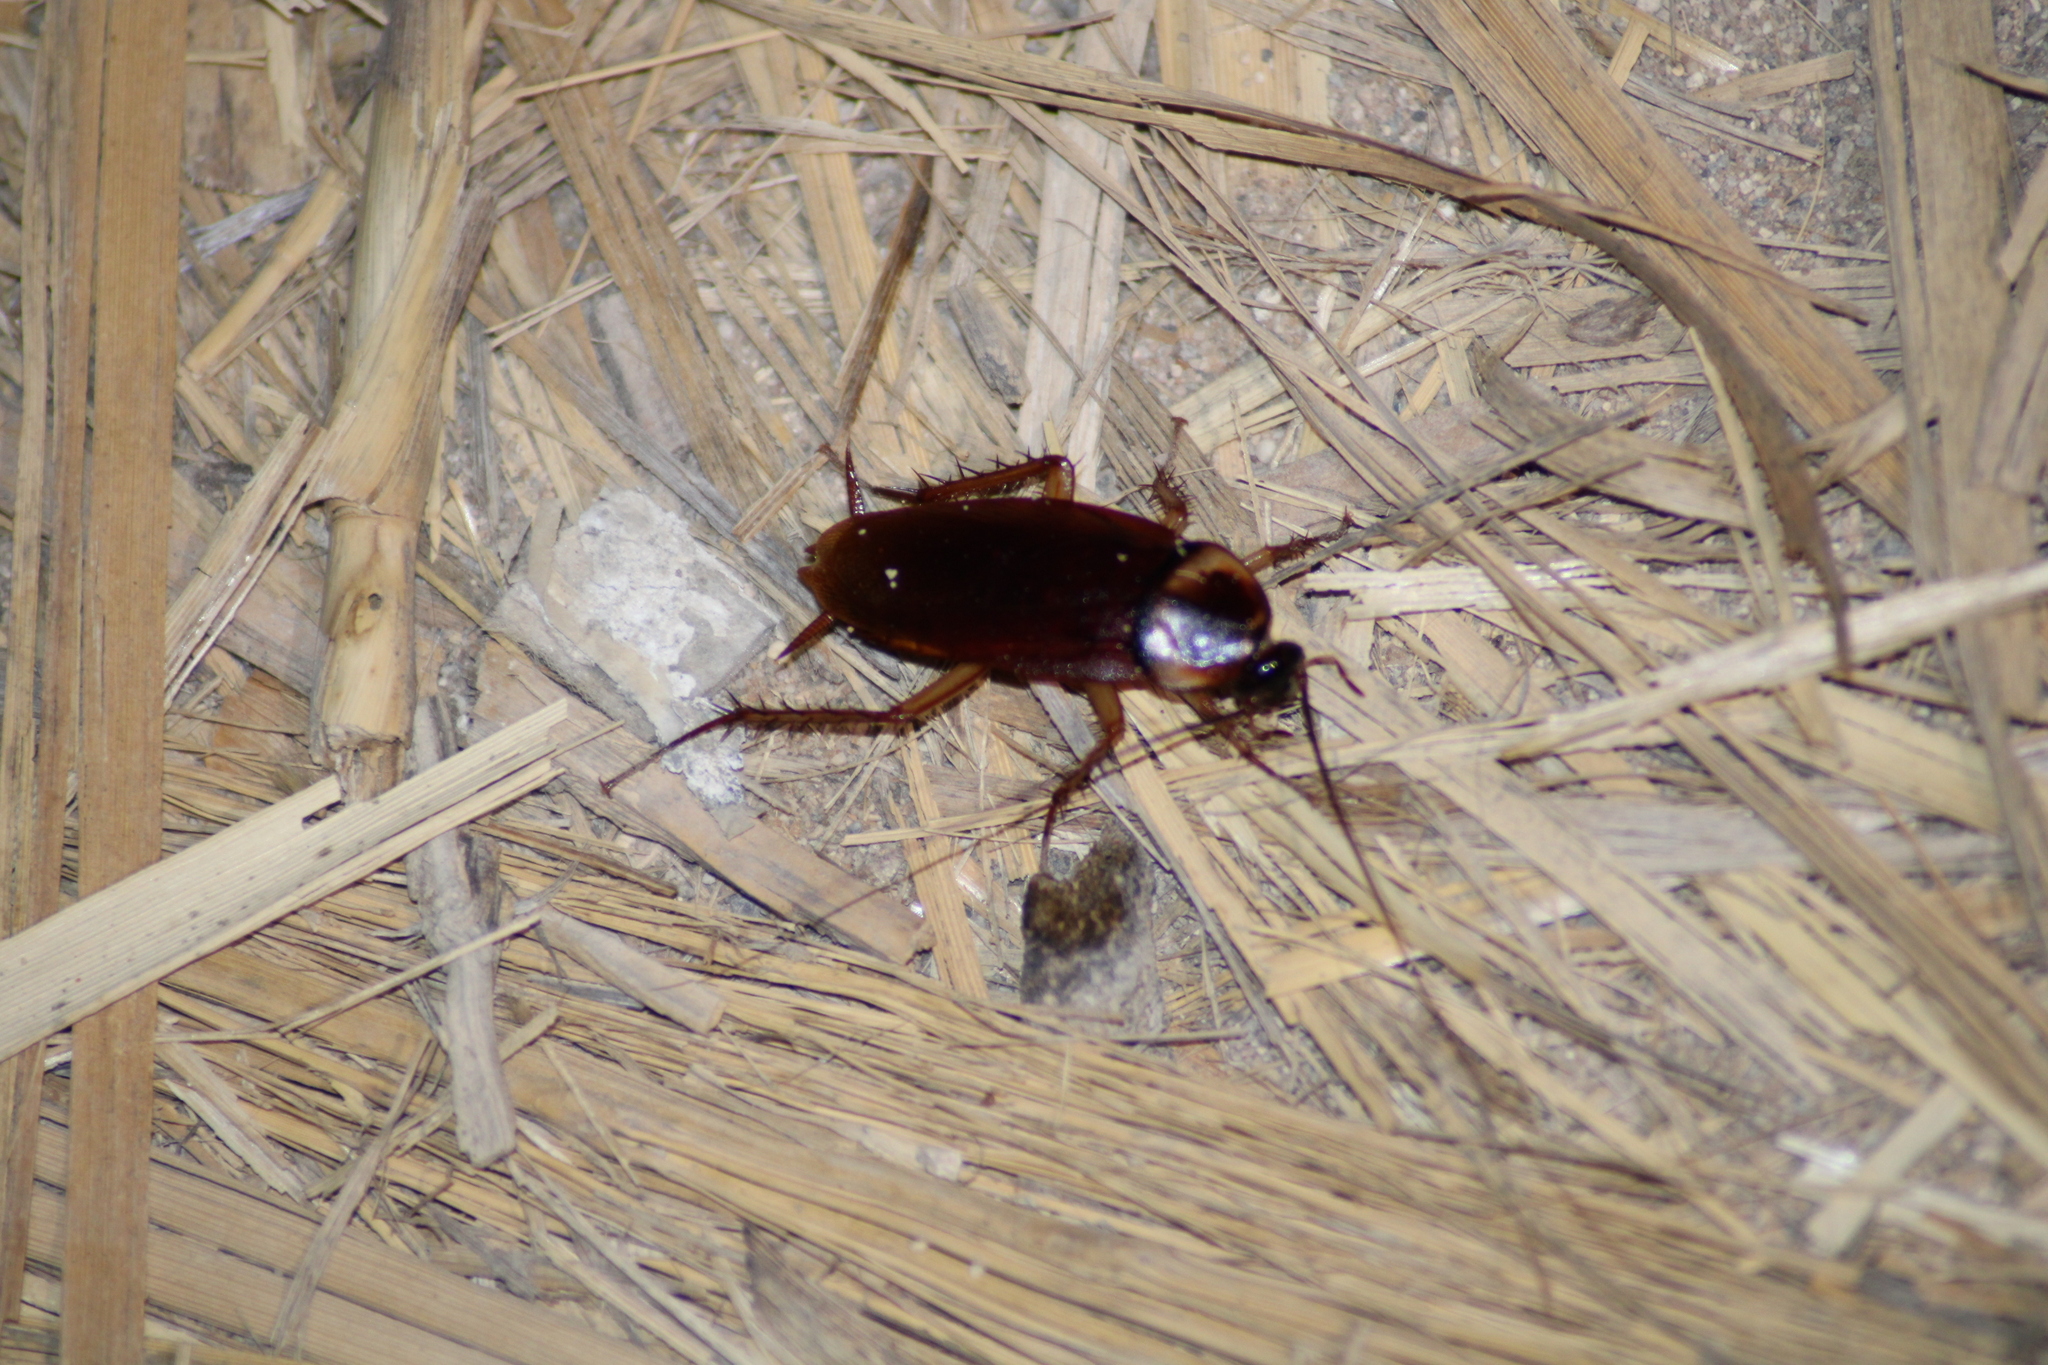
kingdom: Animalia
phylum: Arthropoda
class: Insecta
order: Blattodea
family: Blattidae
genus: Periplaneta
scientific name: Periplaneta americana
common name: American cockroach
